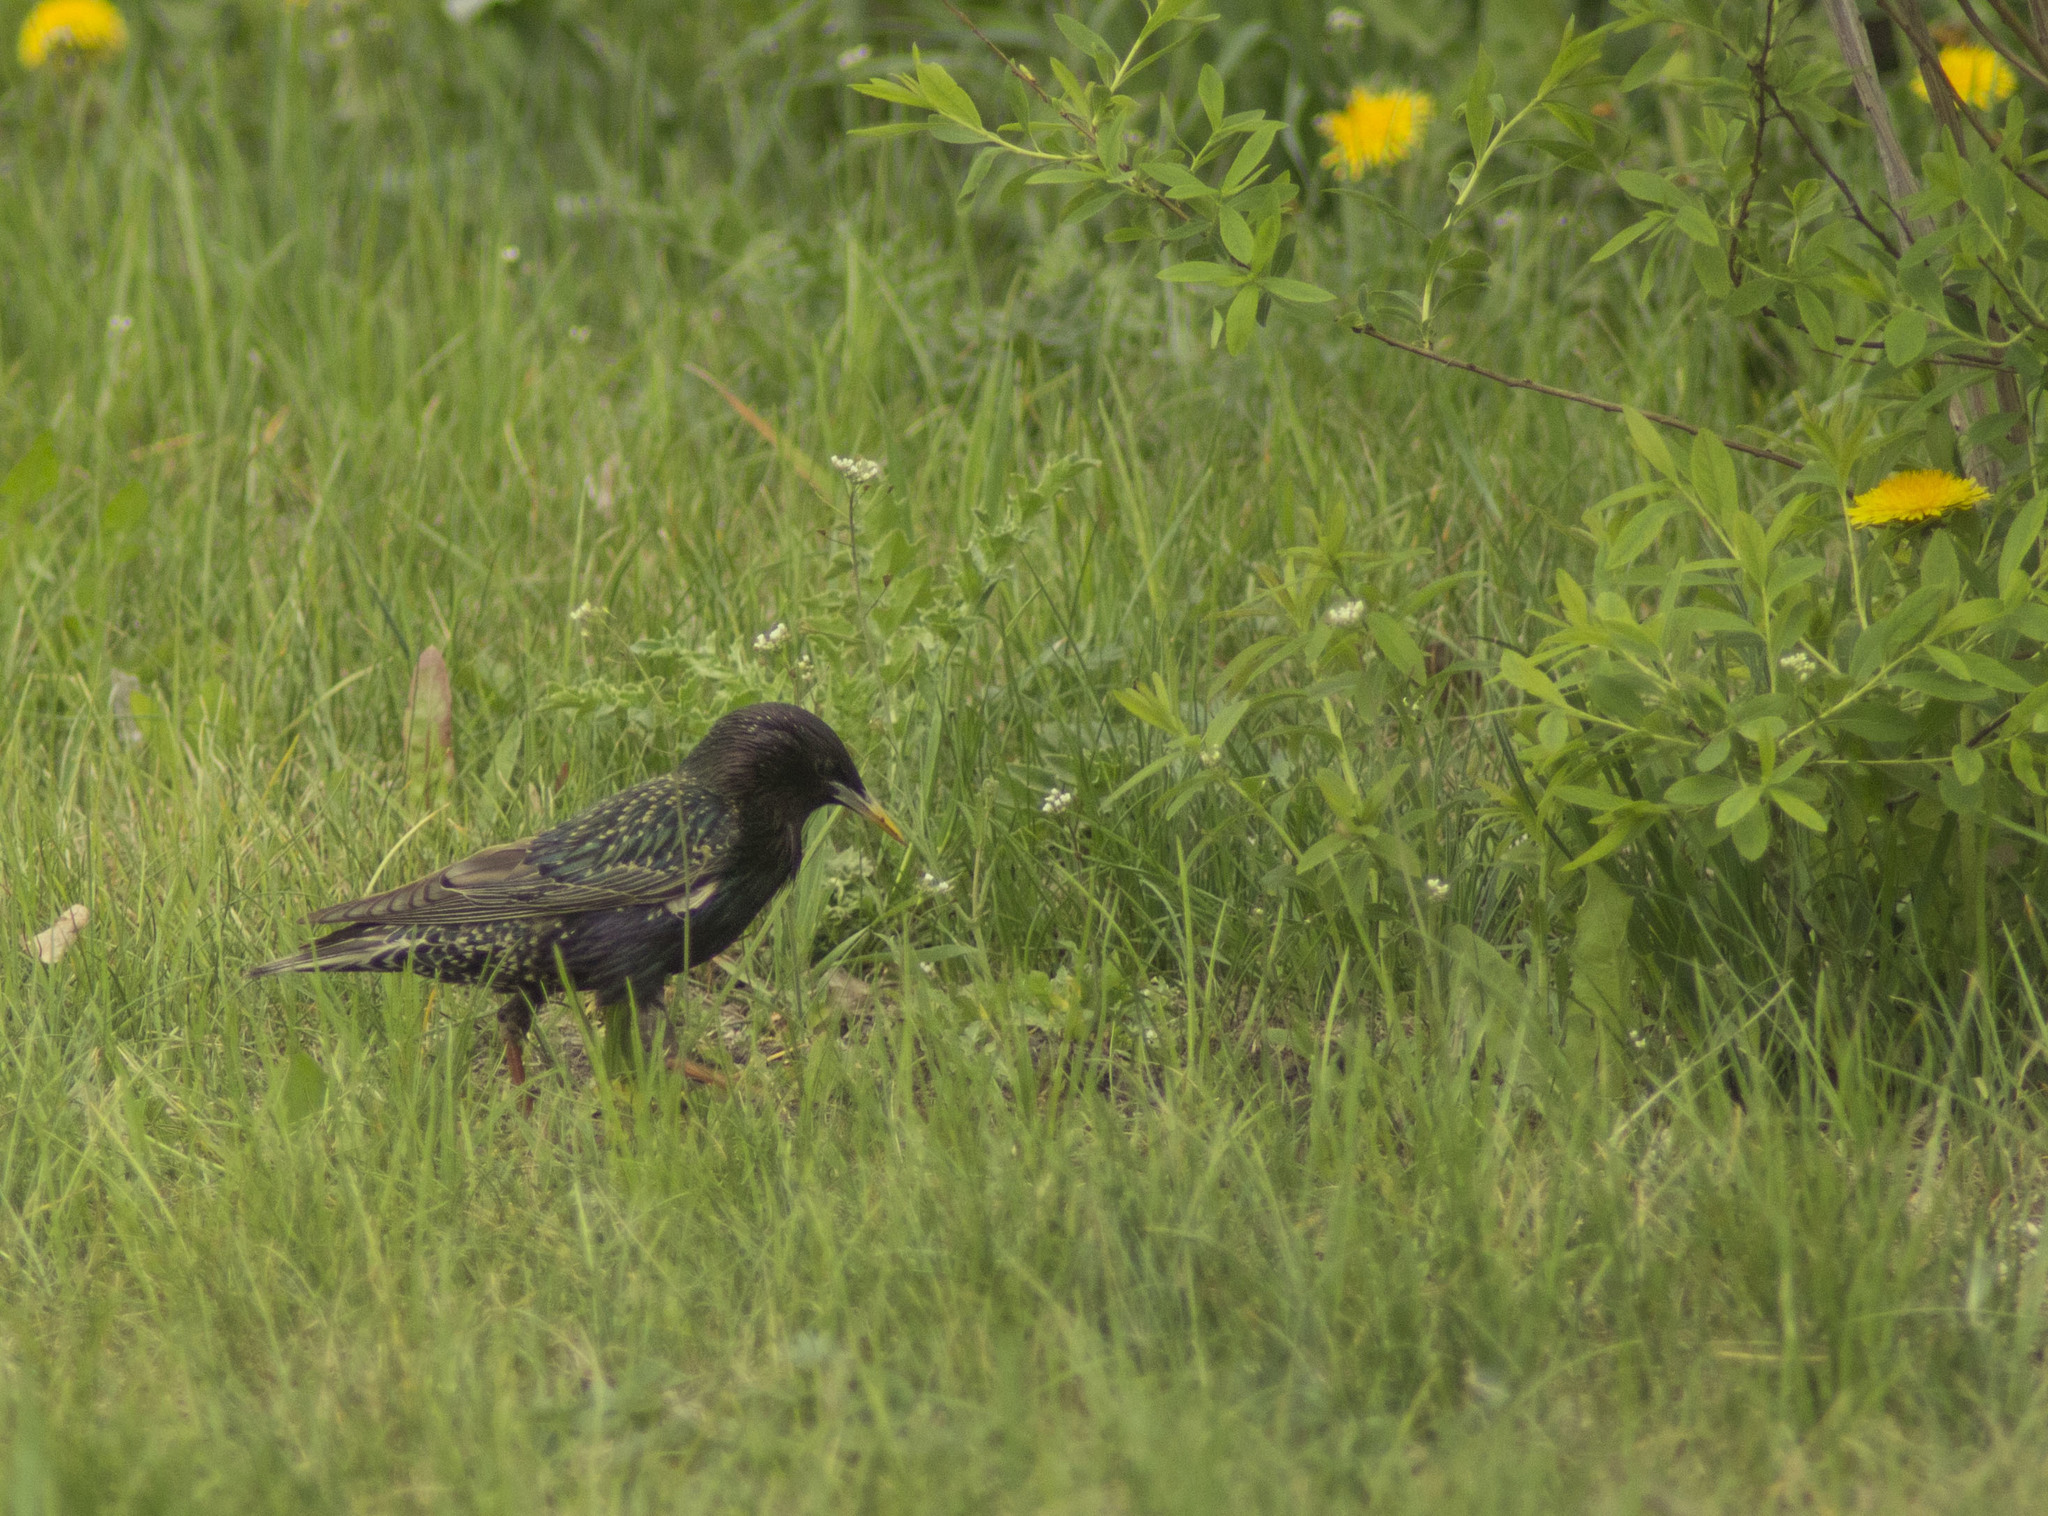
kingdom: Animalia
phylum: Chordata
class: Aves
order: Passeriformes
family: Sturnidae
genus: Sturnus
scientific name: Sturnus vulgaris
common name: Common starling
